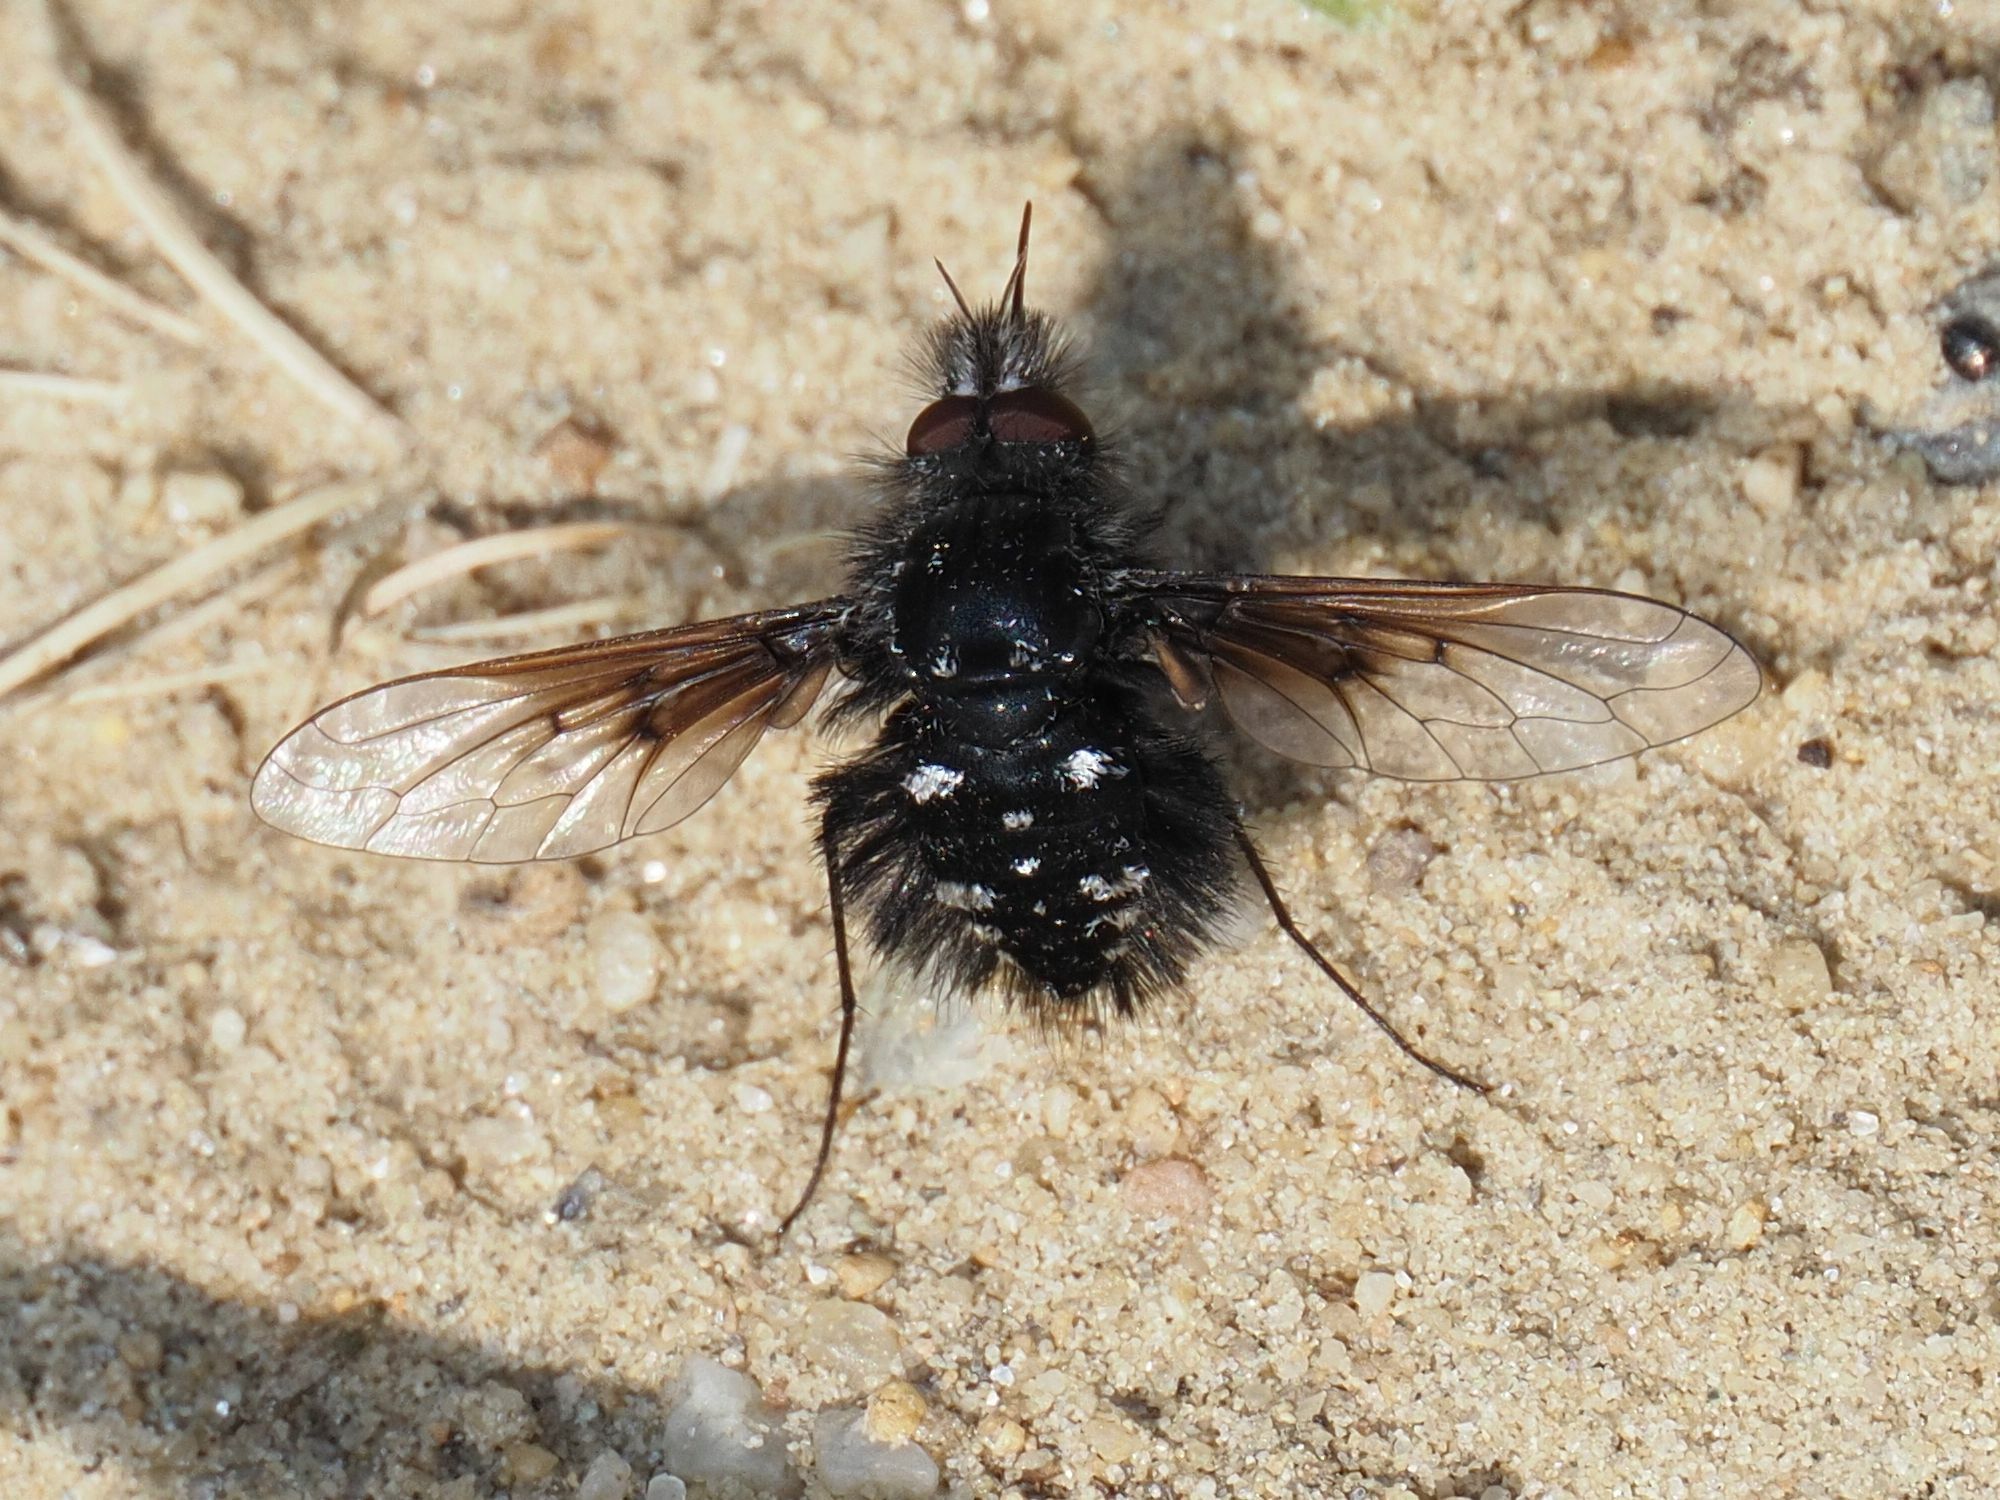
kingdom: Animalia
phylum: Arthropoda
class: Insecta
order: Diptera
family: Bombyliidae
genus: Bombylella
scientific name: Bombylella atra
